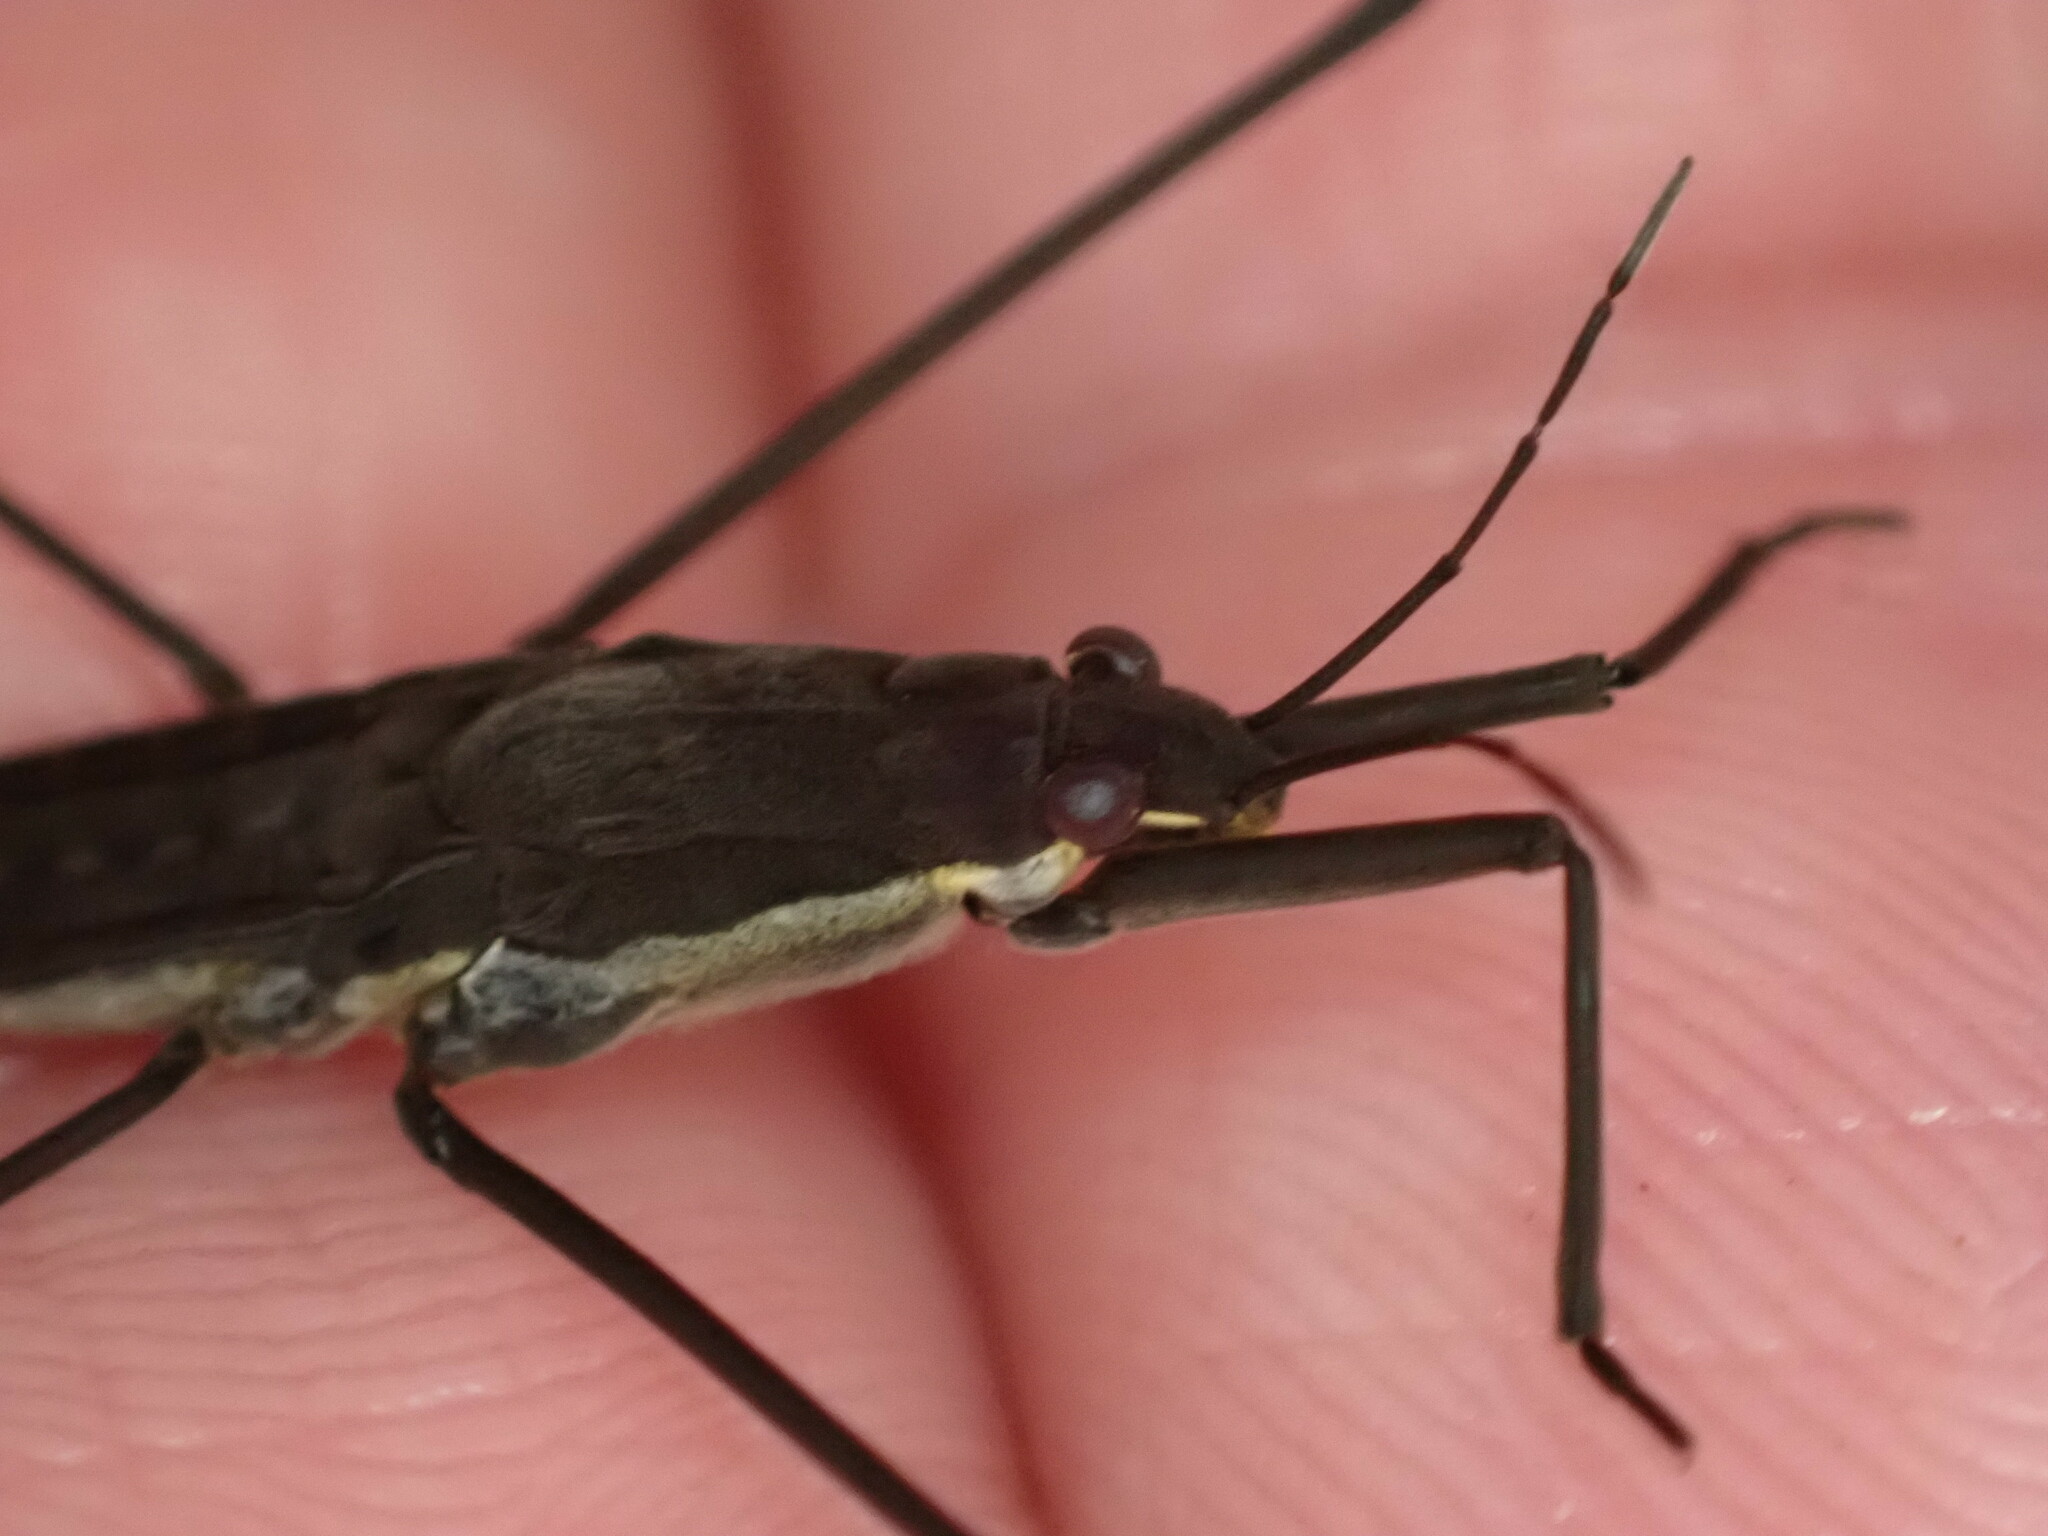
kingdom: Animalia
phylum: Arthropoda
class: Insecta
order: Hemiptera
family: Gerridae
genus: Aquarius
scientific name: Aquarius remigis
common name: Common water strider
